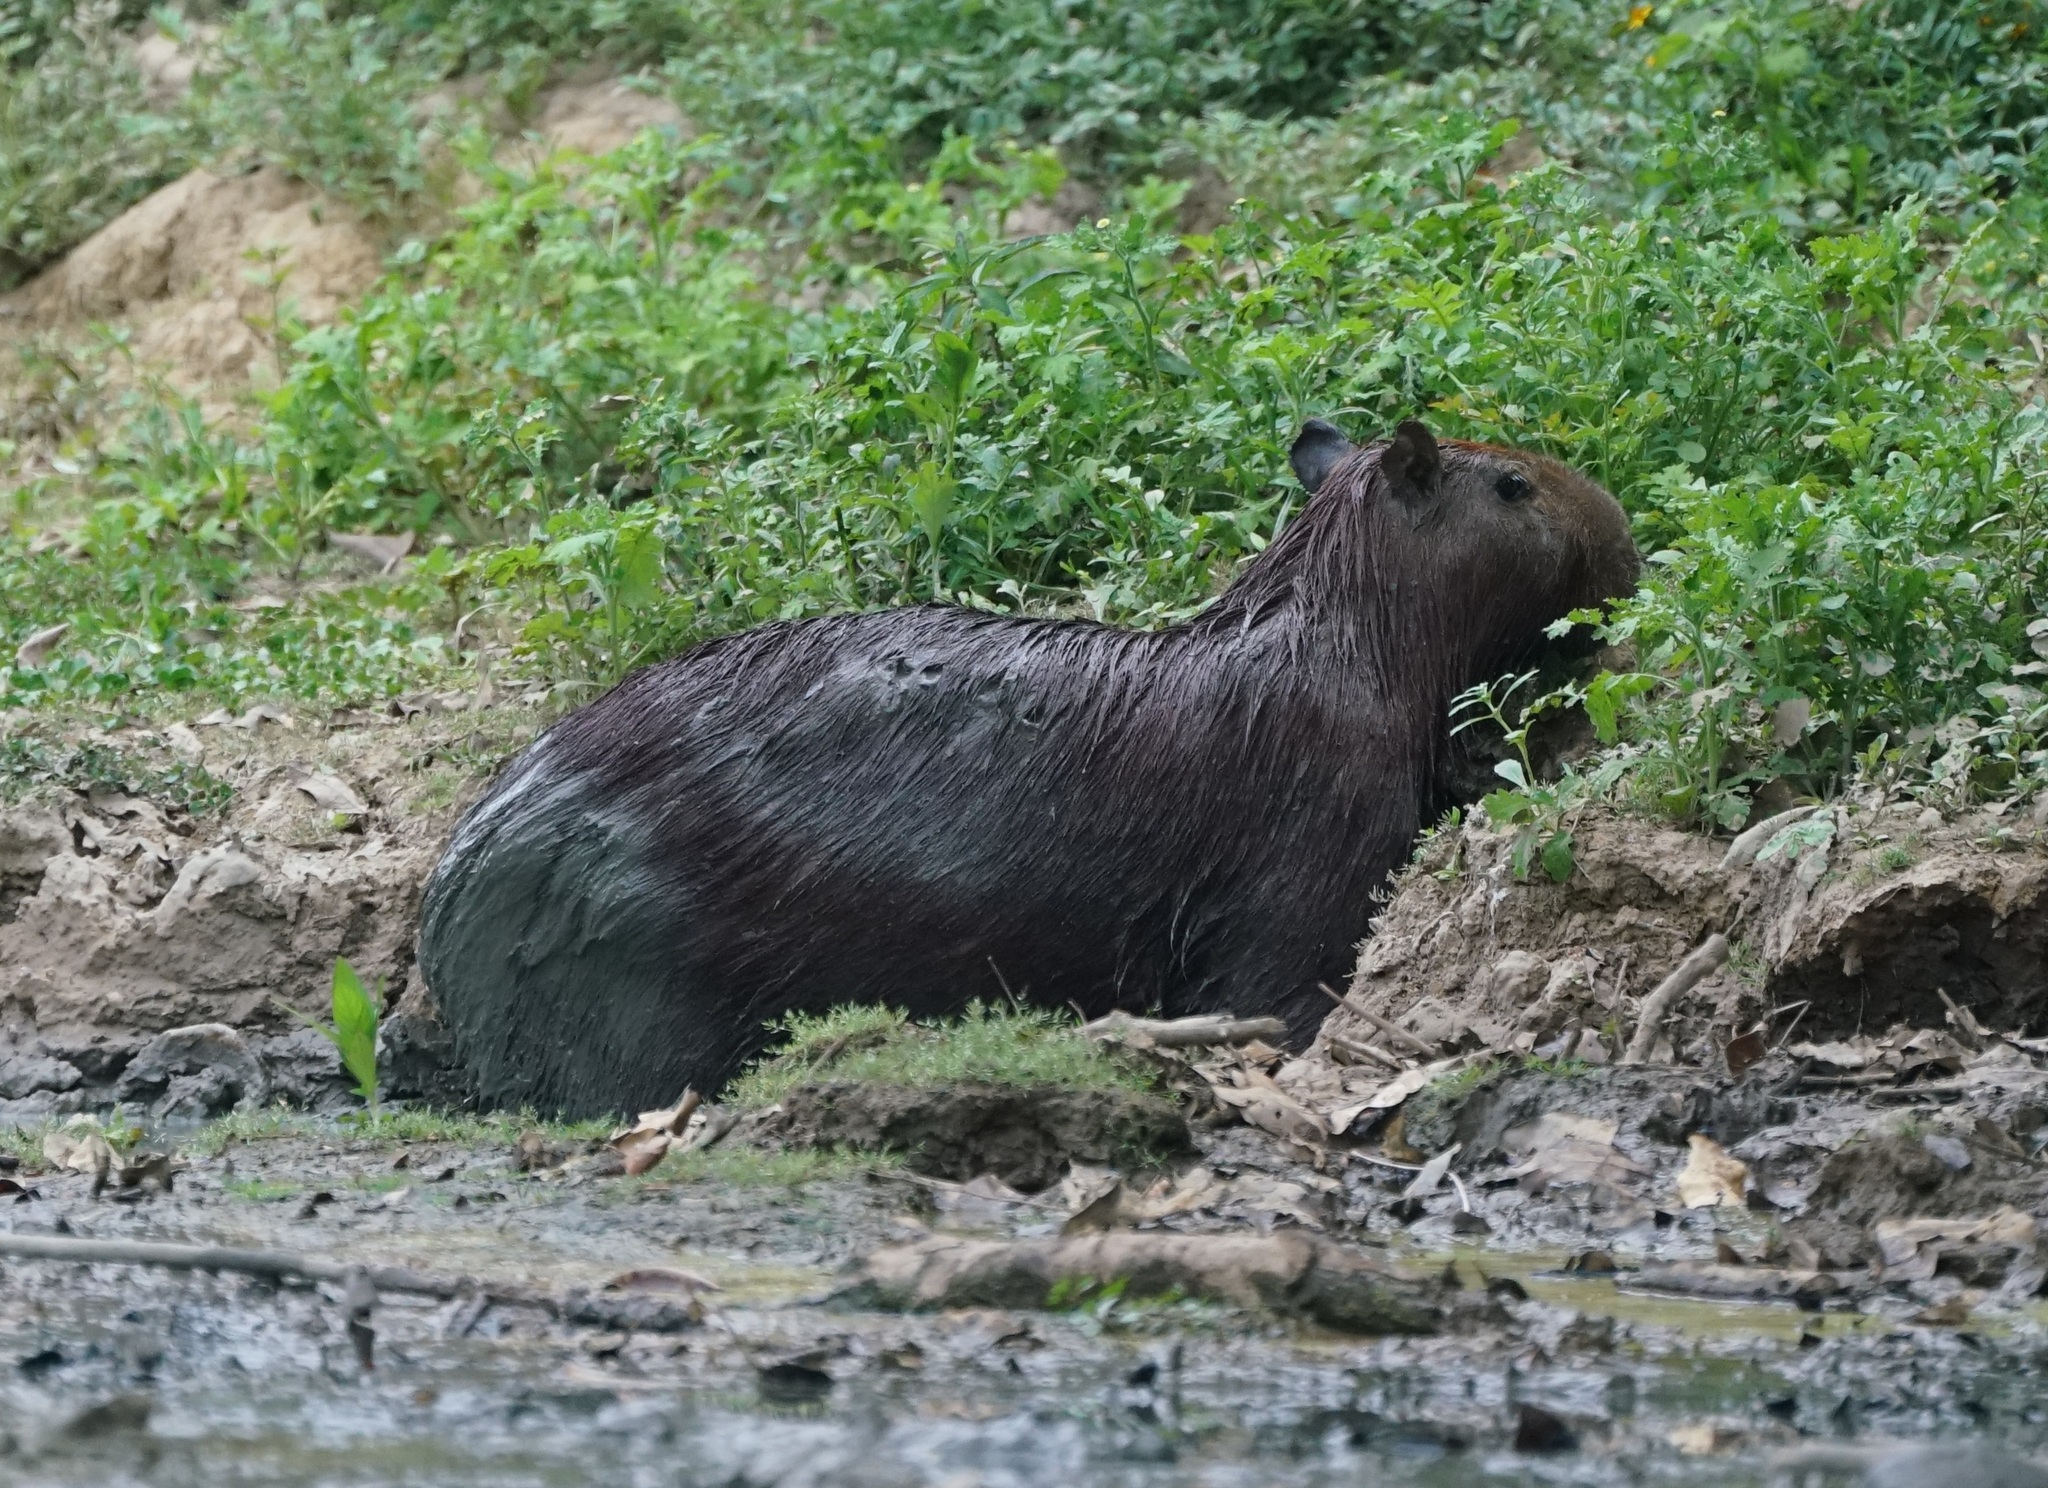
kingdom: Animalia
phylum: Chordata
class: Mammalia
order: Rodentia
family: Caviidae
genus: Hydrochoerus
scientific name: Hydrochoerus hydrochaeris
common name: Capybara
